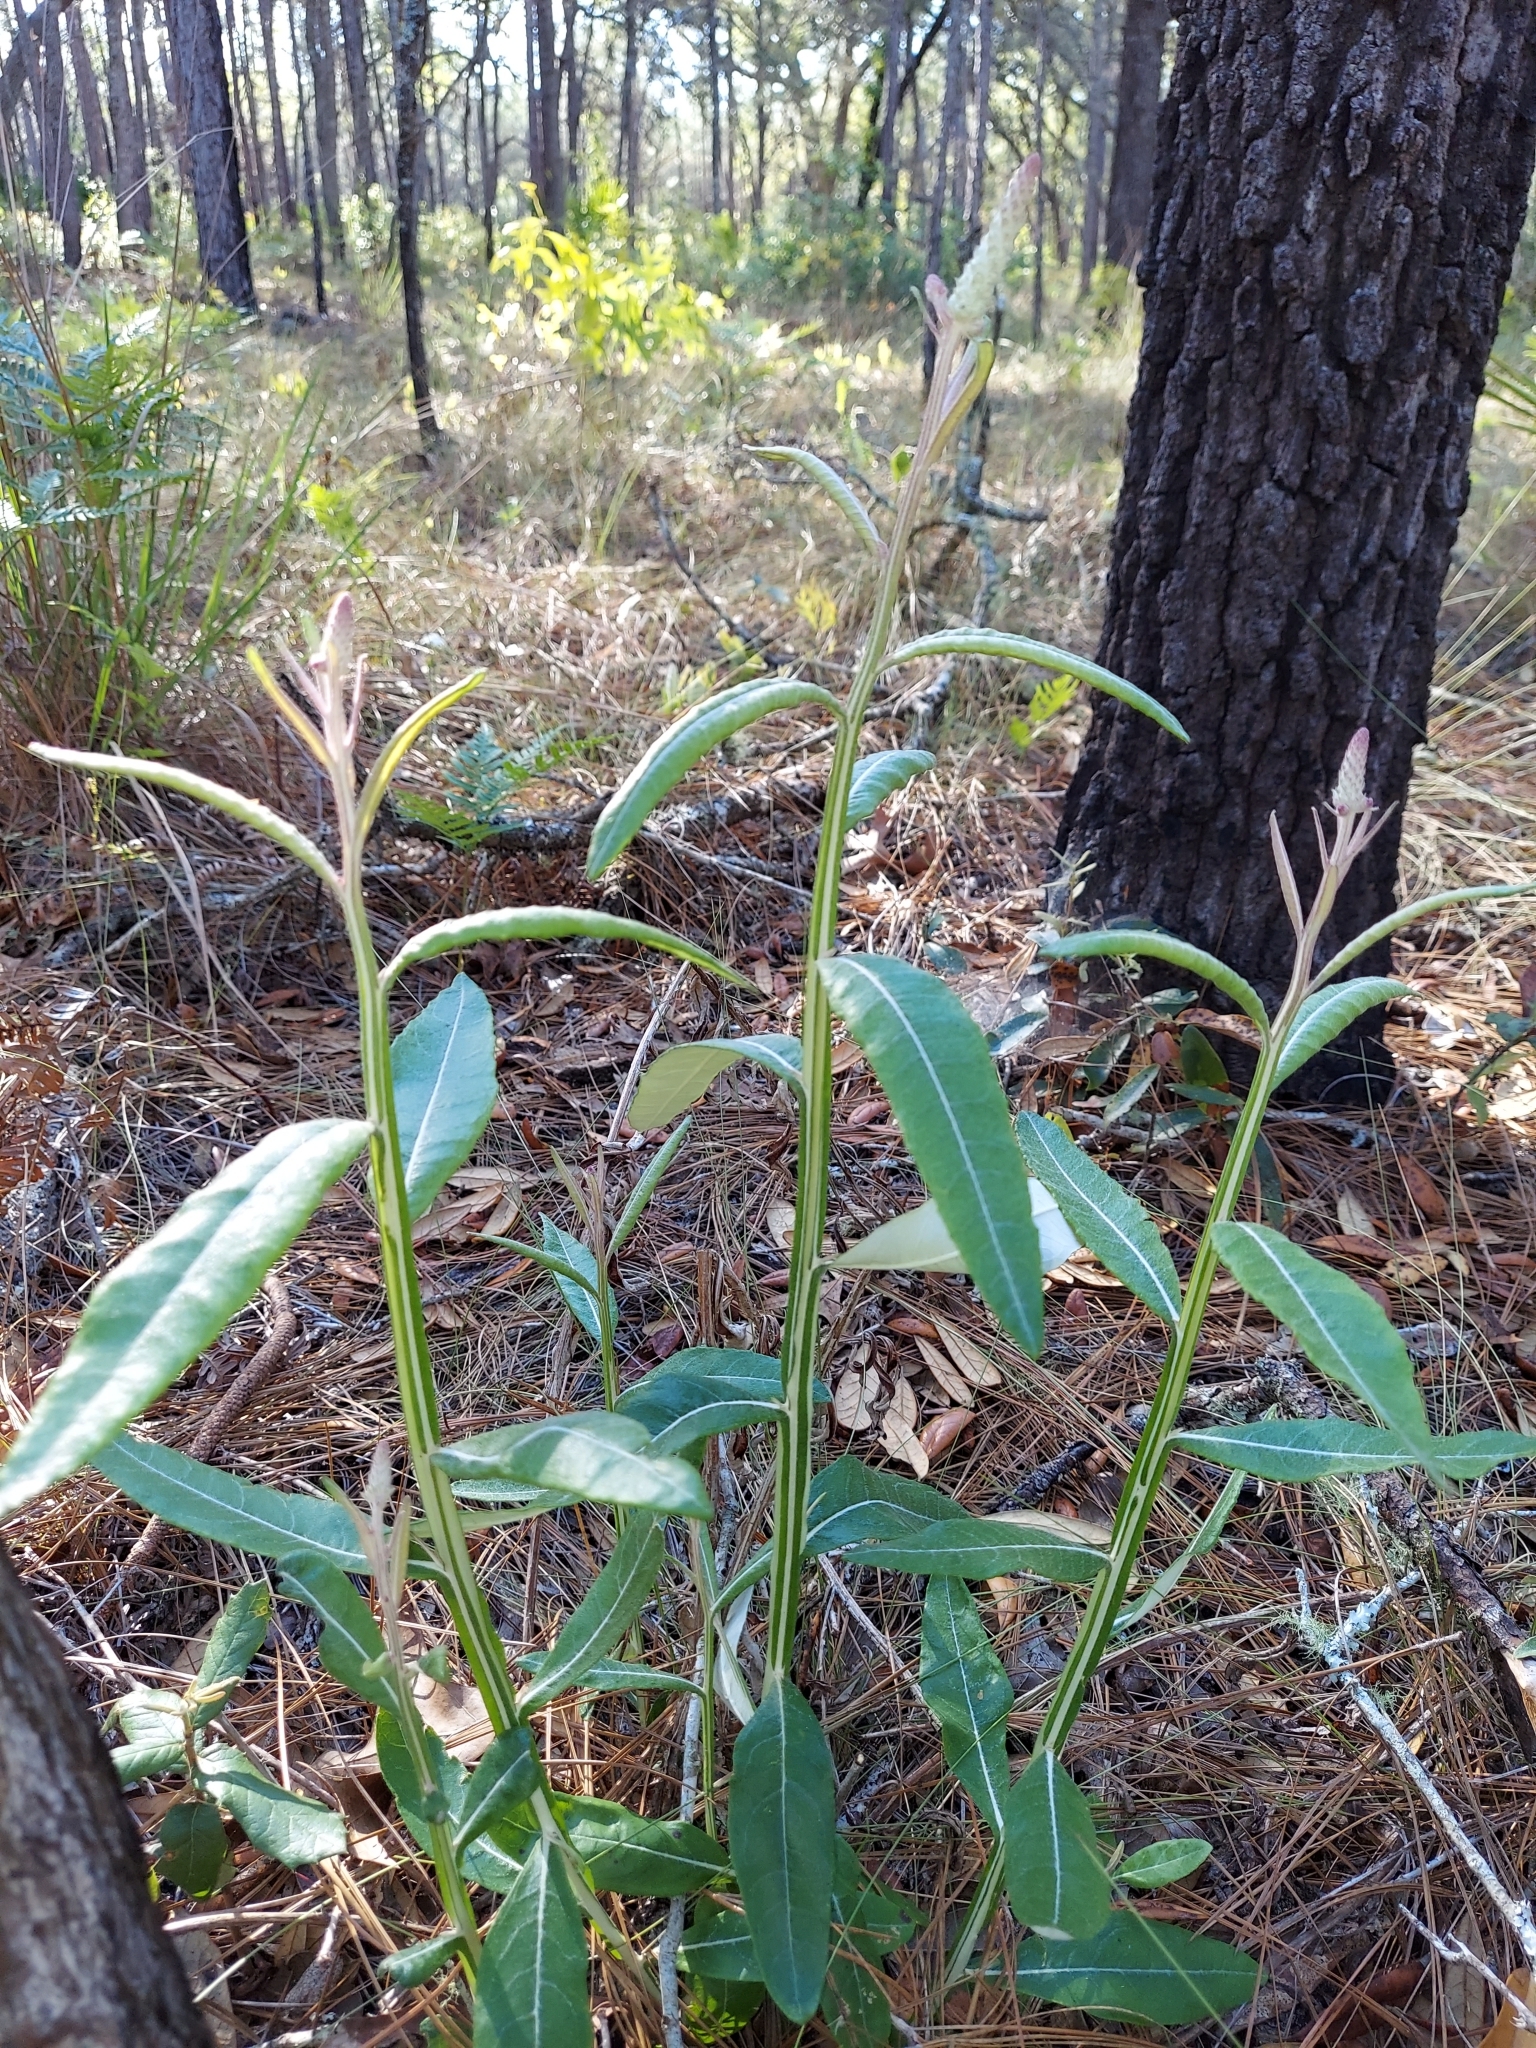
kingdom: Plantae
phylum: Tracheophyta
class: Magnoliopsida
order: Asterales
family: Asteraceae
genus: Pterocaulon
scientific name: Pterocaulon pycnostachyum
